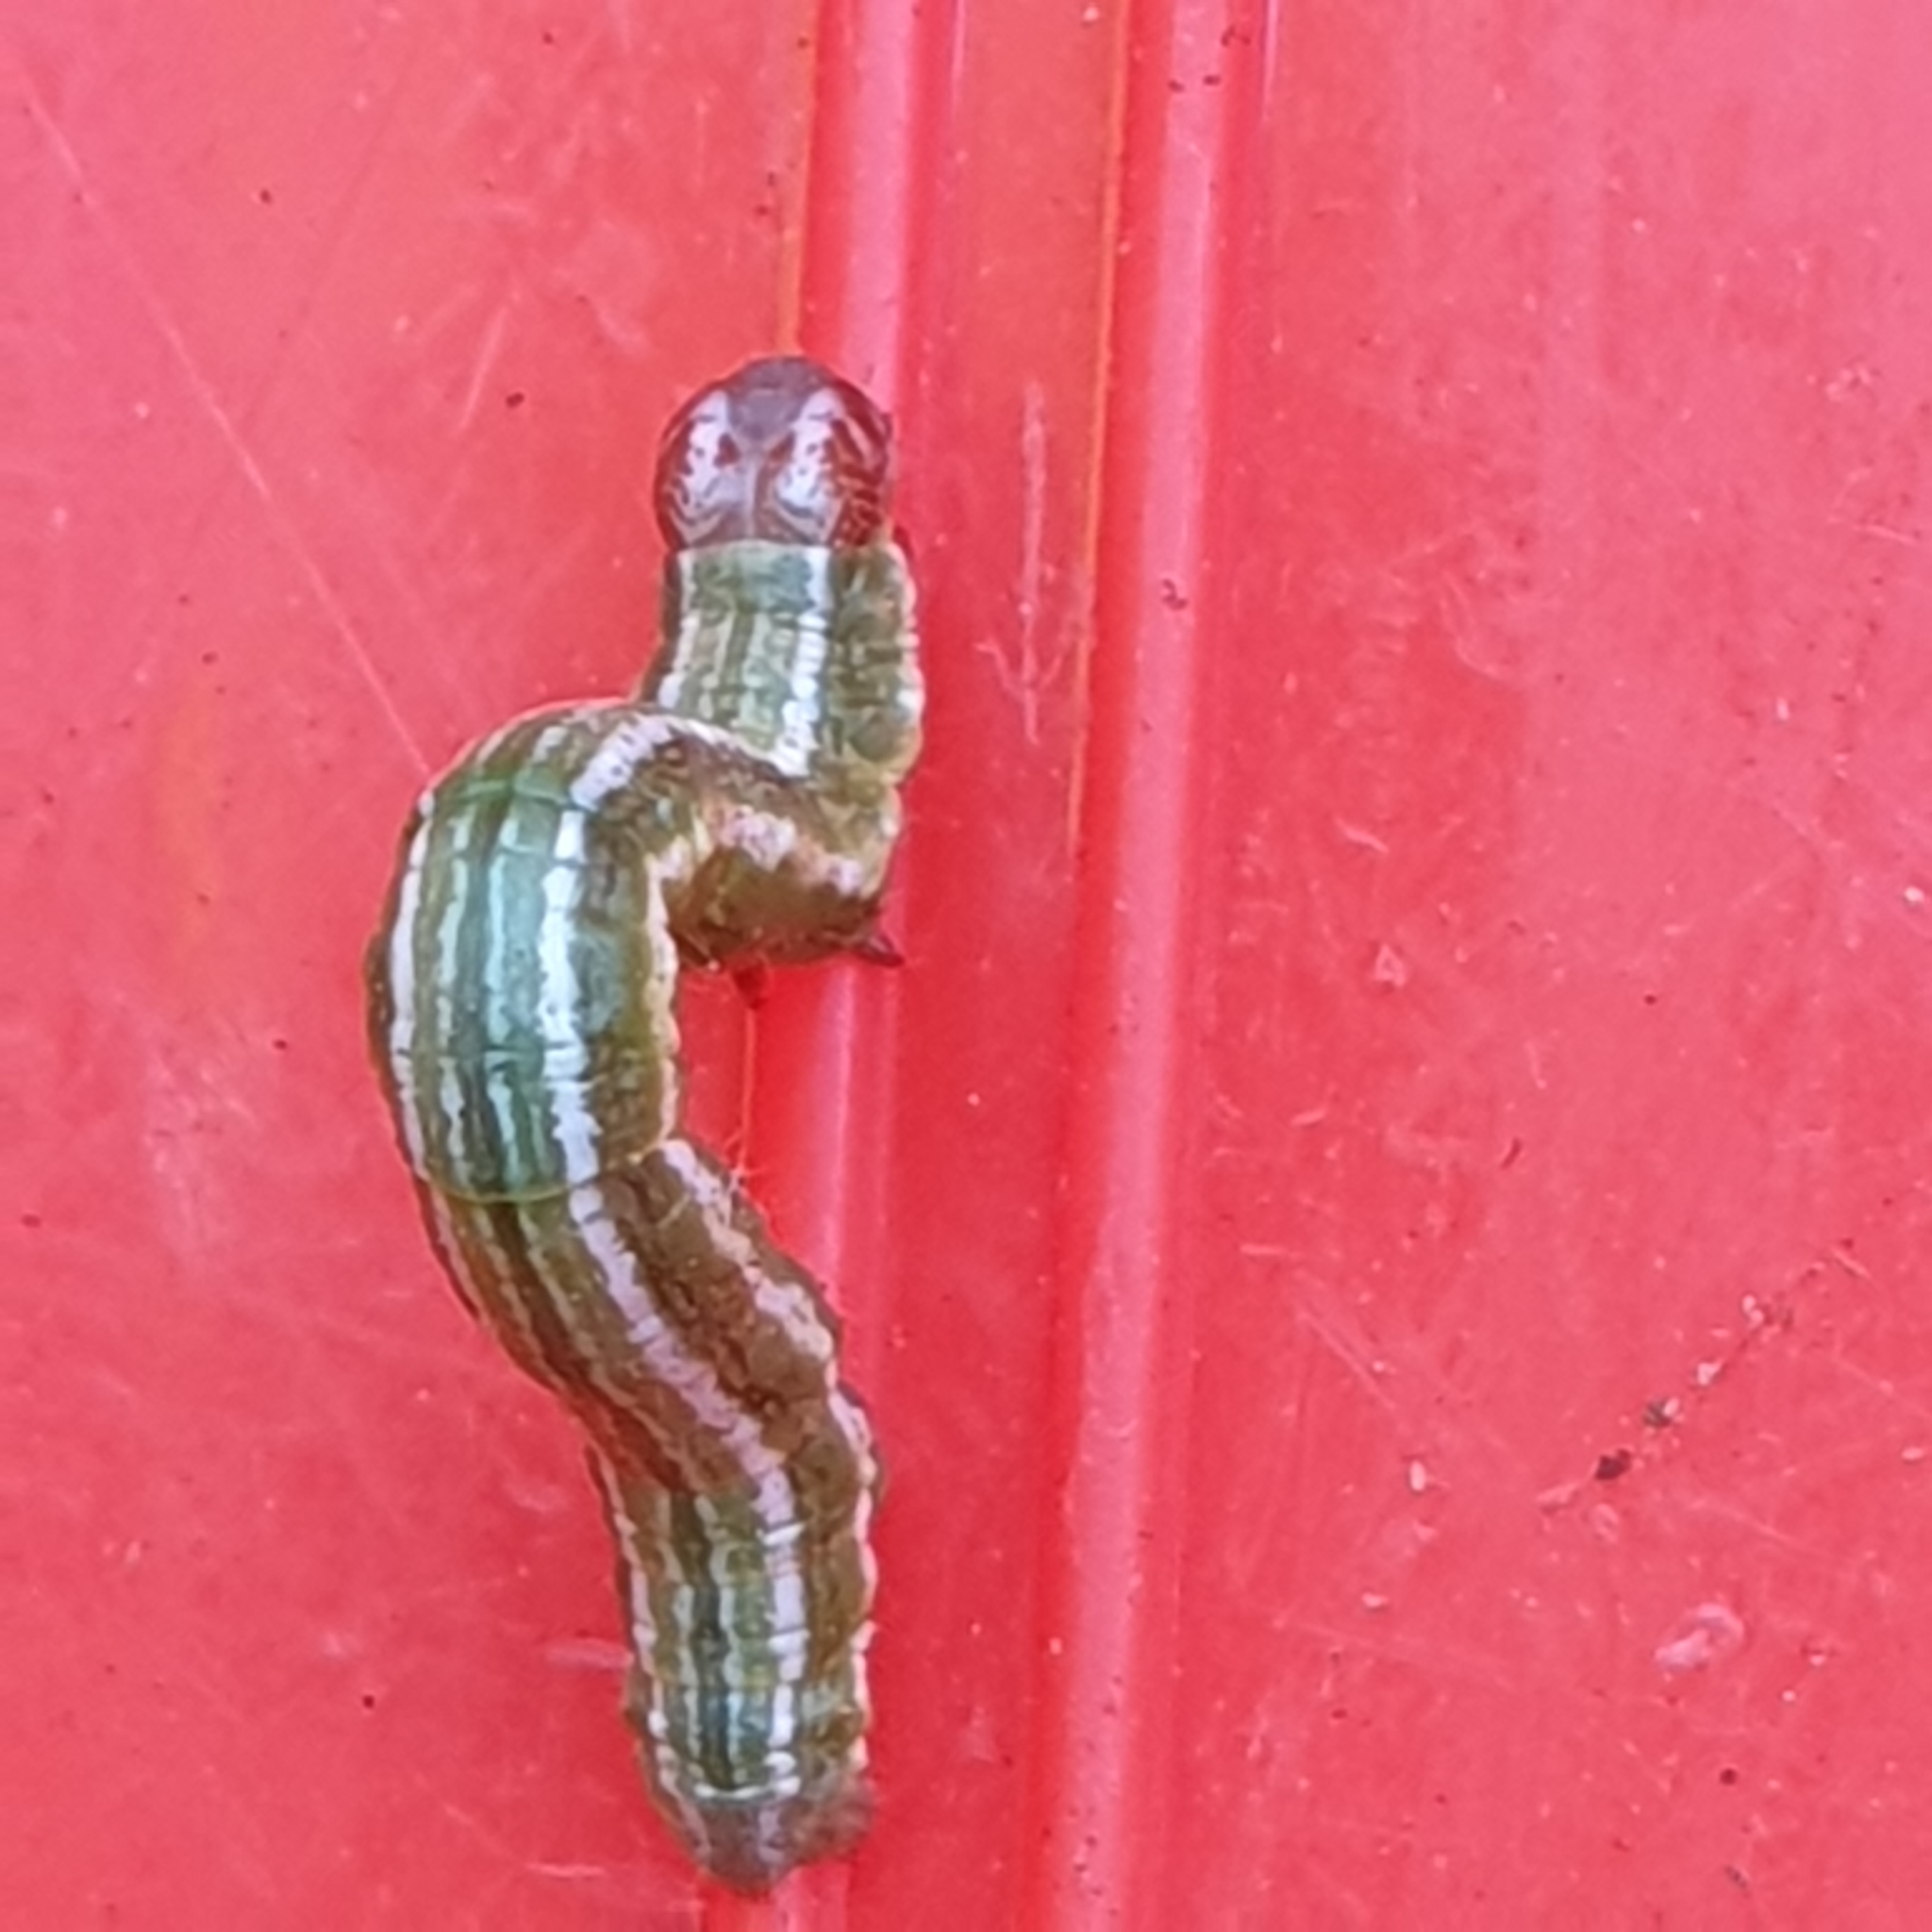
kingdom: Animalia
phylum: Arthropoda
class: Insecta
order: Lepidoptera
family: Geometridae
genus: Thera
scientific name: Thera obeliscata
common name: Grey pine carpet
